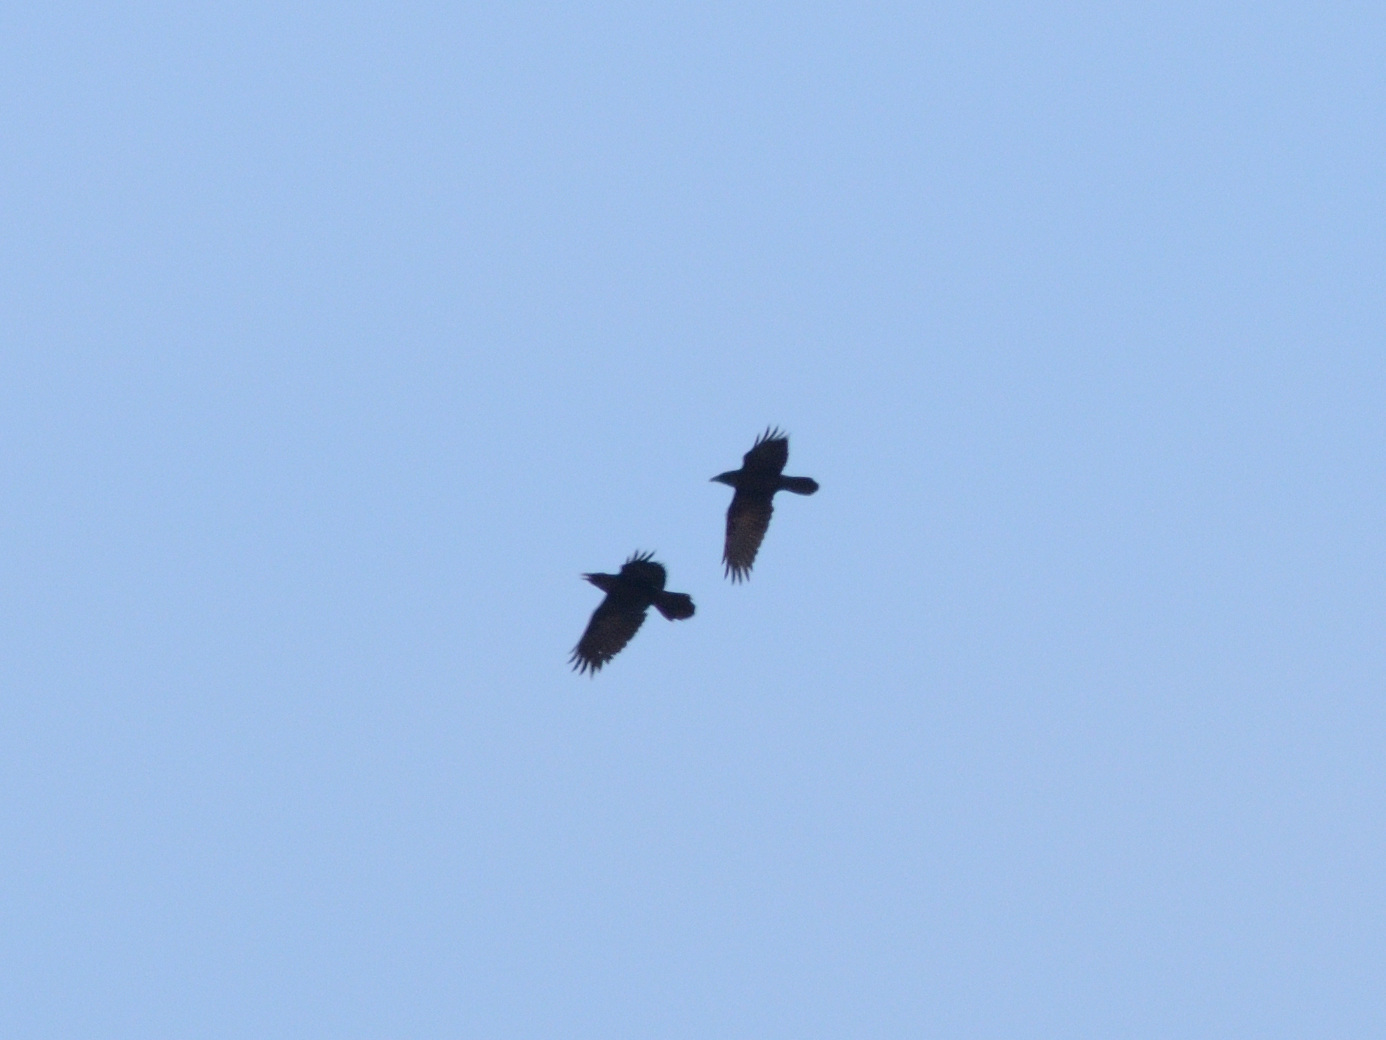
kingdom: Animalia
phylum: Chordata
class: Aves
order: Passeriformes
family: Corvidae
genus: Corvus
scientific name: Corvus corax
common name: Common raven
